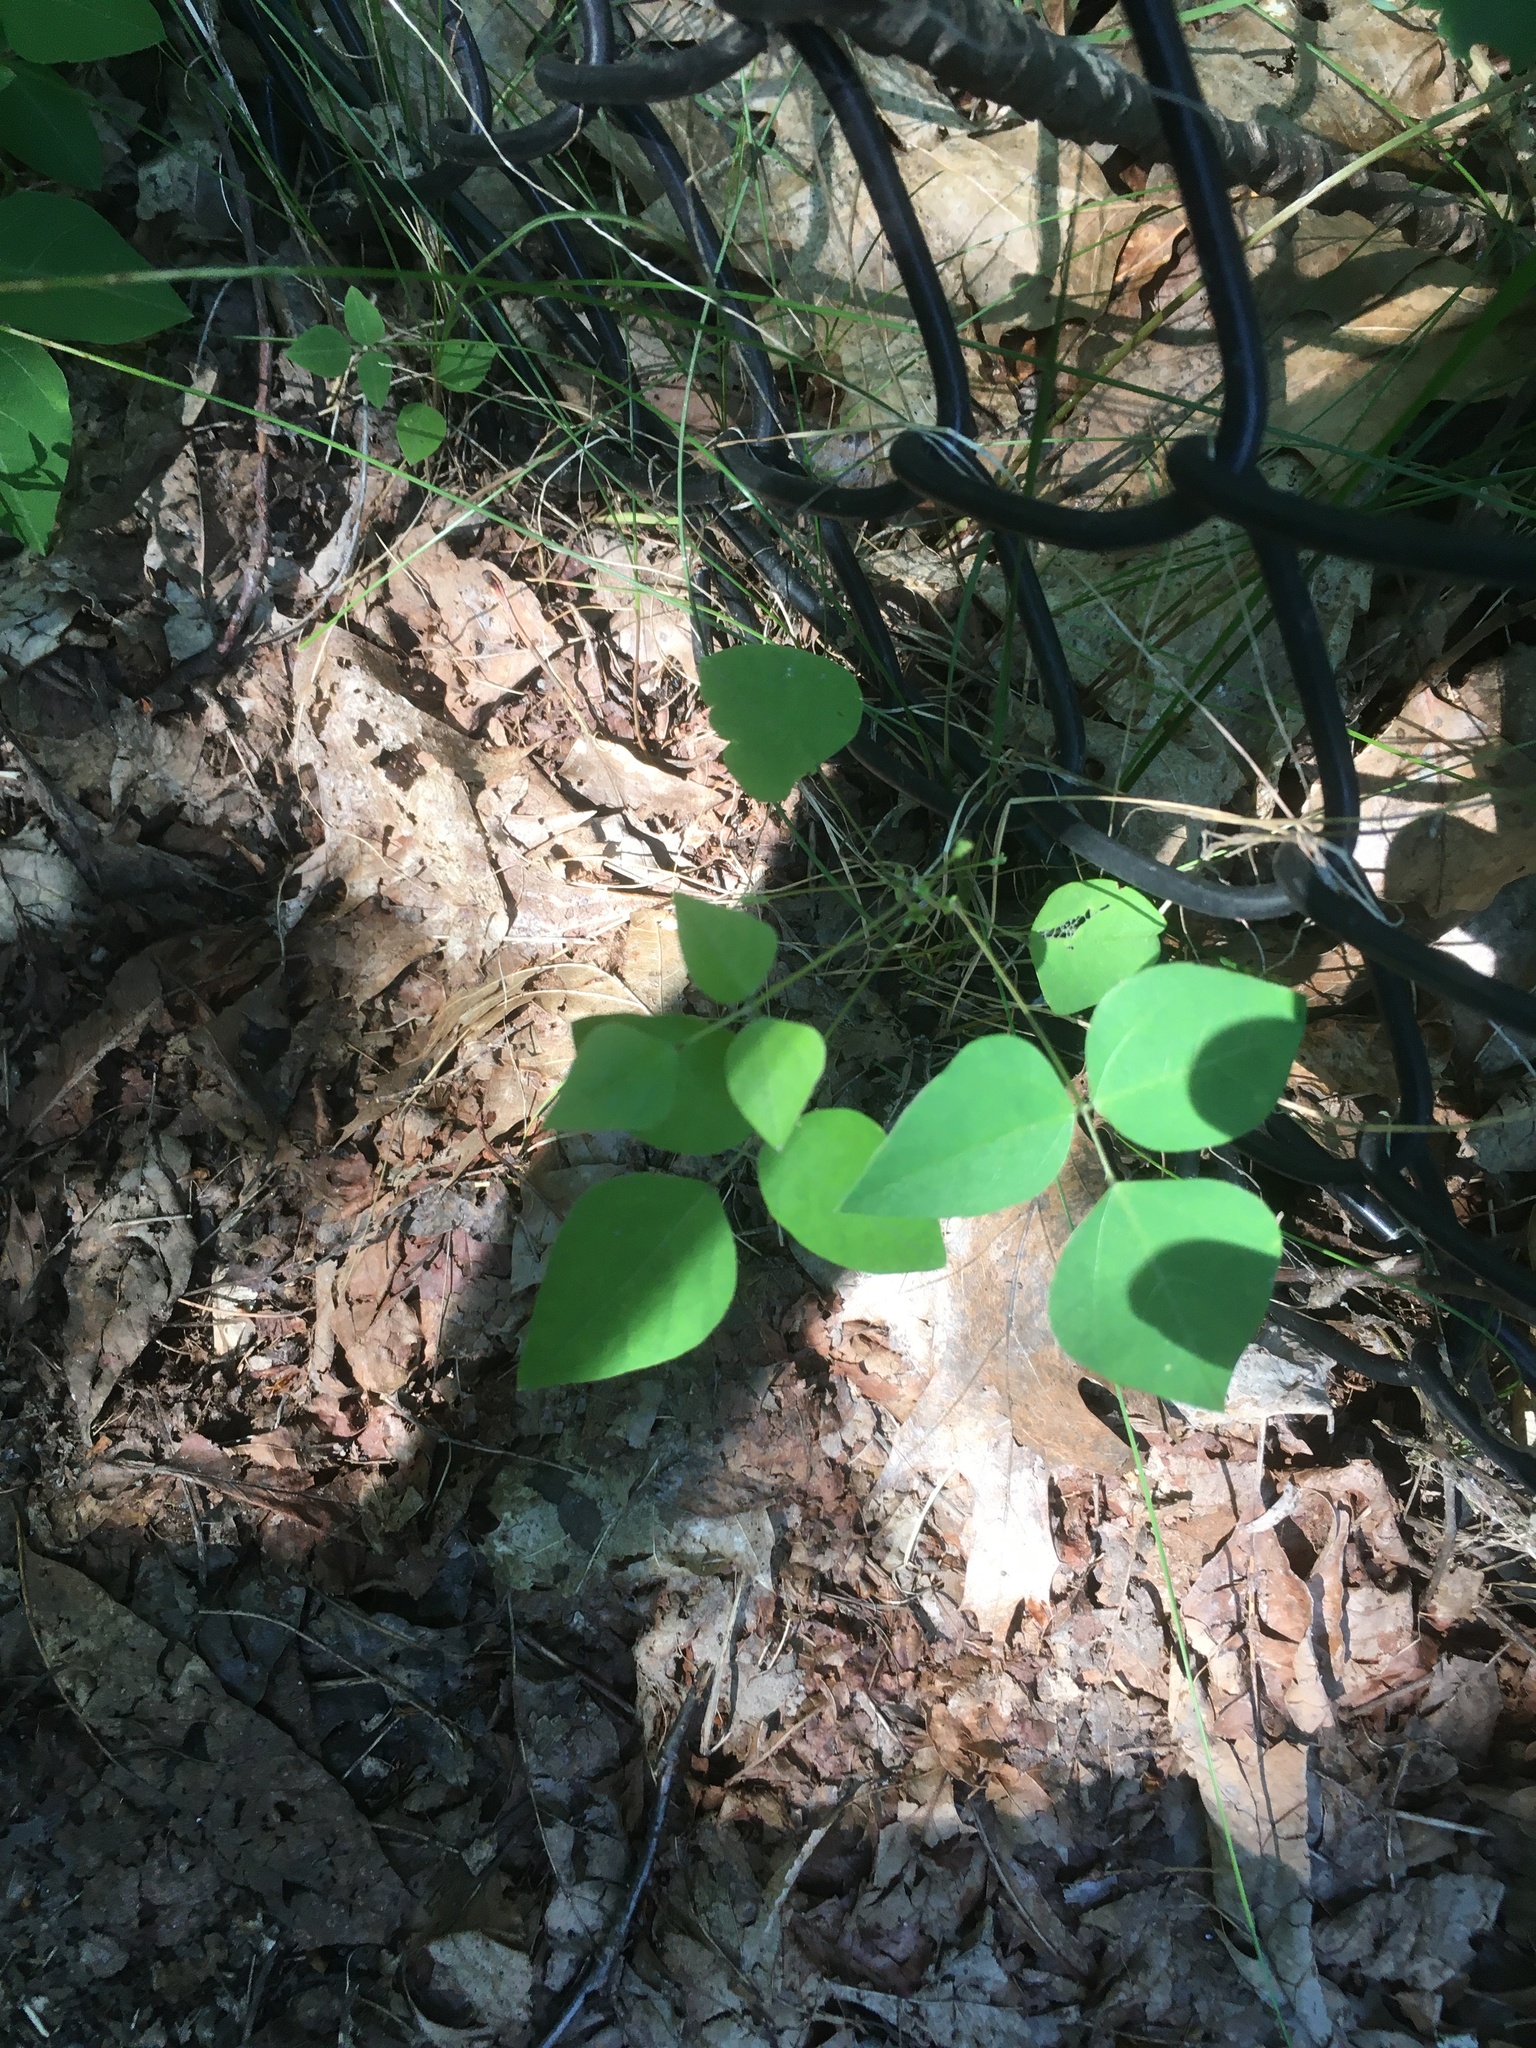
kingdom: Plantae
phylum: Tracheophyta
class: Magnoliopsida
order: Fabales
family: Fabaceae
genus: Amphicarpaea
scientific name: Amphicarpaea bracteata
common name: American hog peanut
